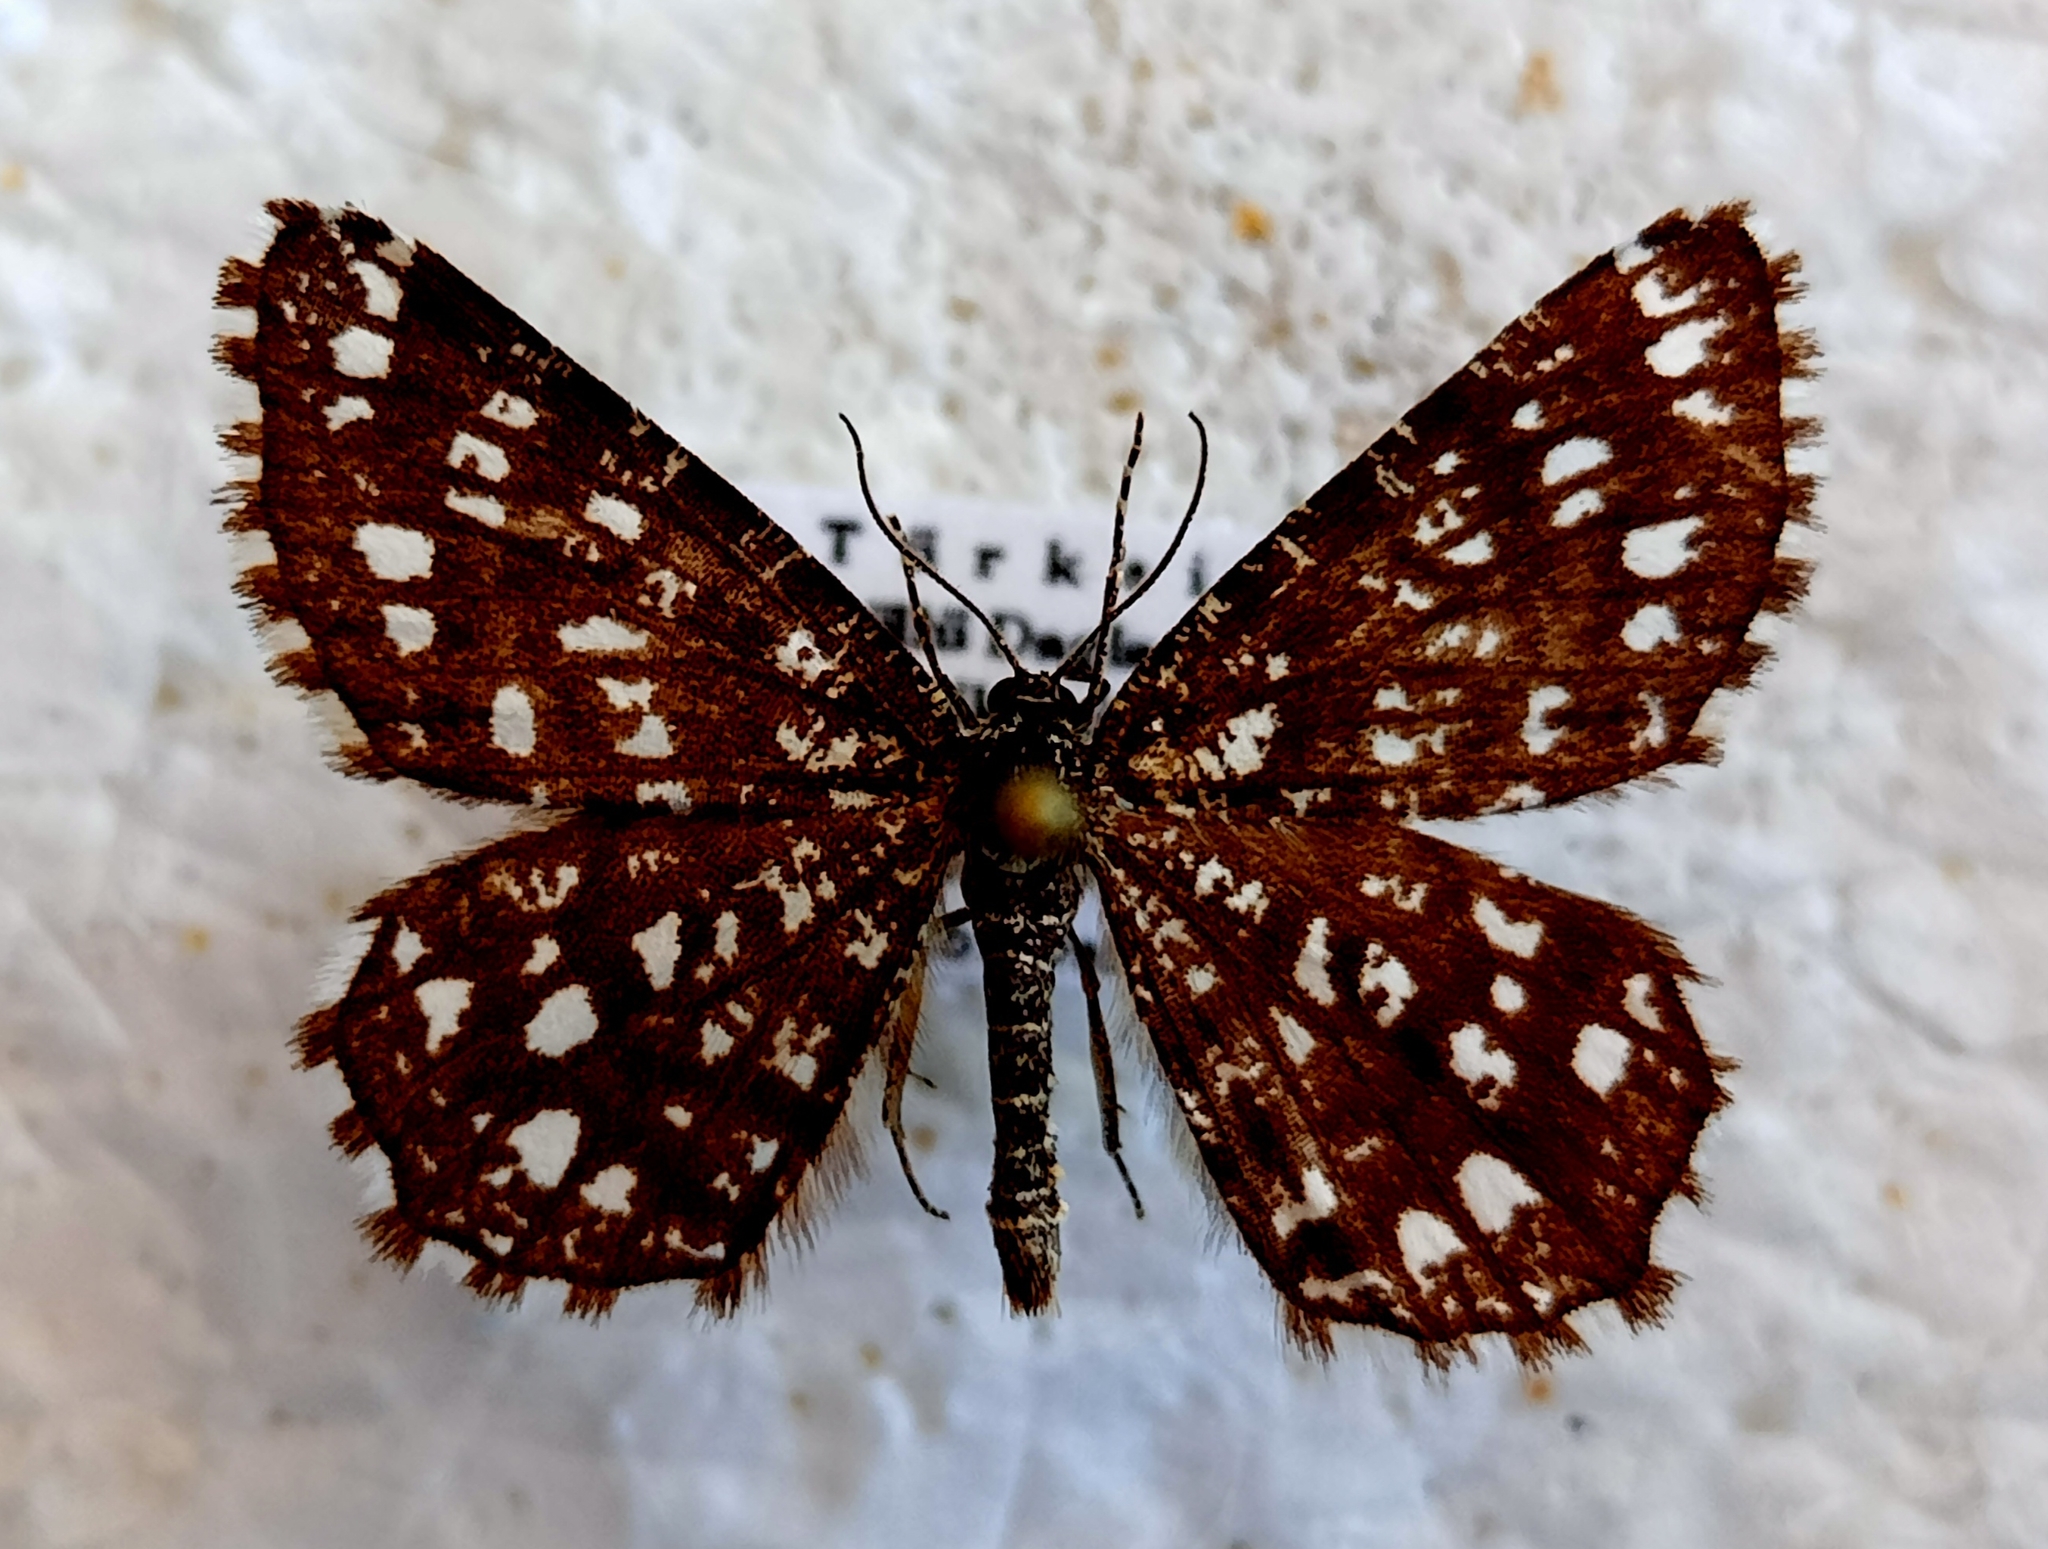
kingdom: Animalia
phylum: Arthropoda
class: Insecta
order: Lepidoptera
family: Geometridae
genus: Chiasmia
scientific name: Chiasmia clathrata
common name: Latticed heath
